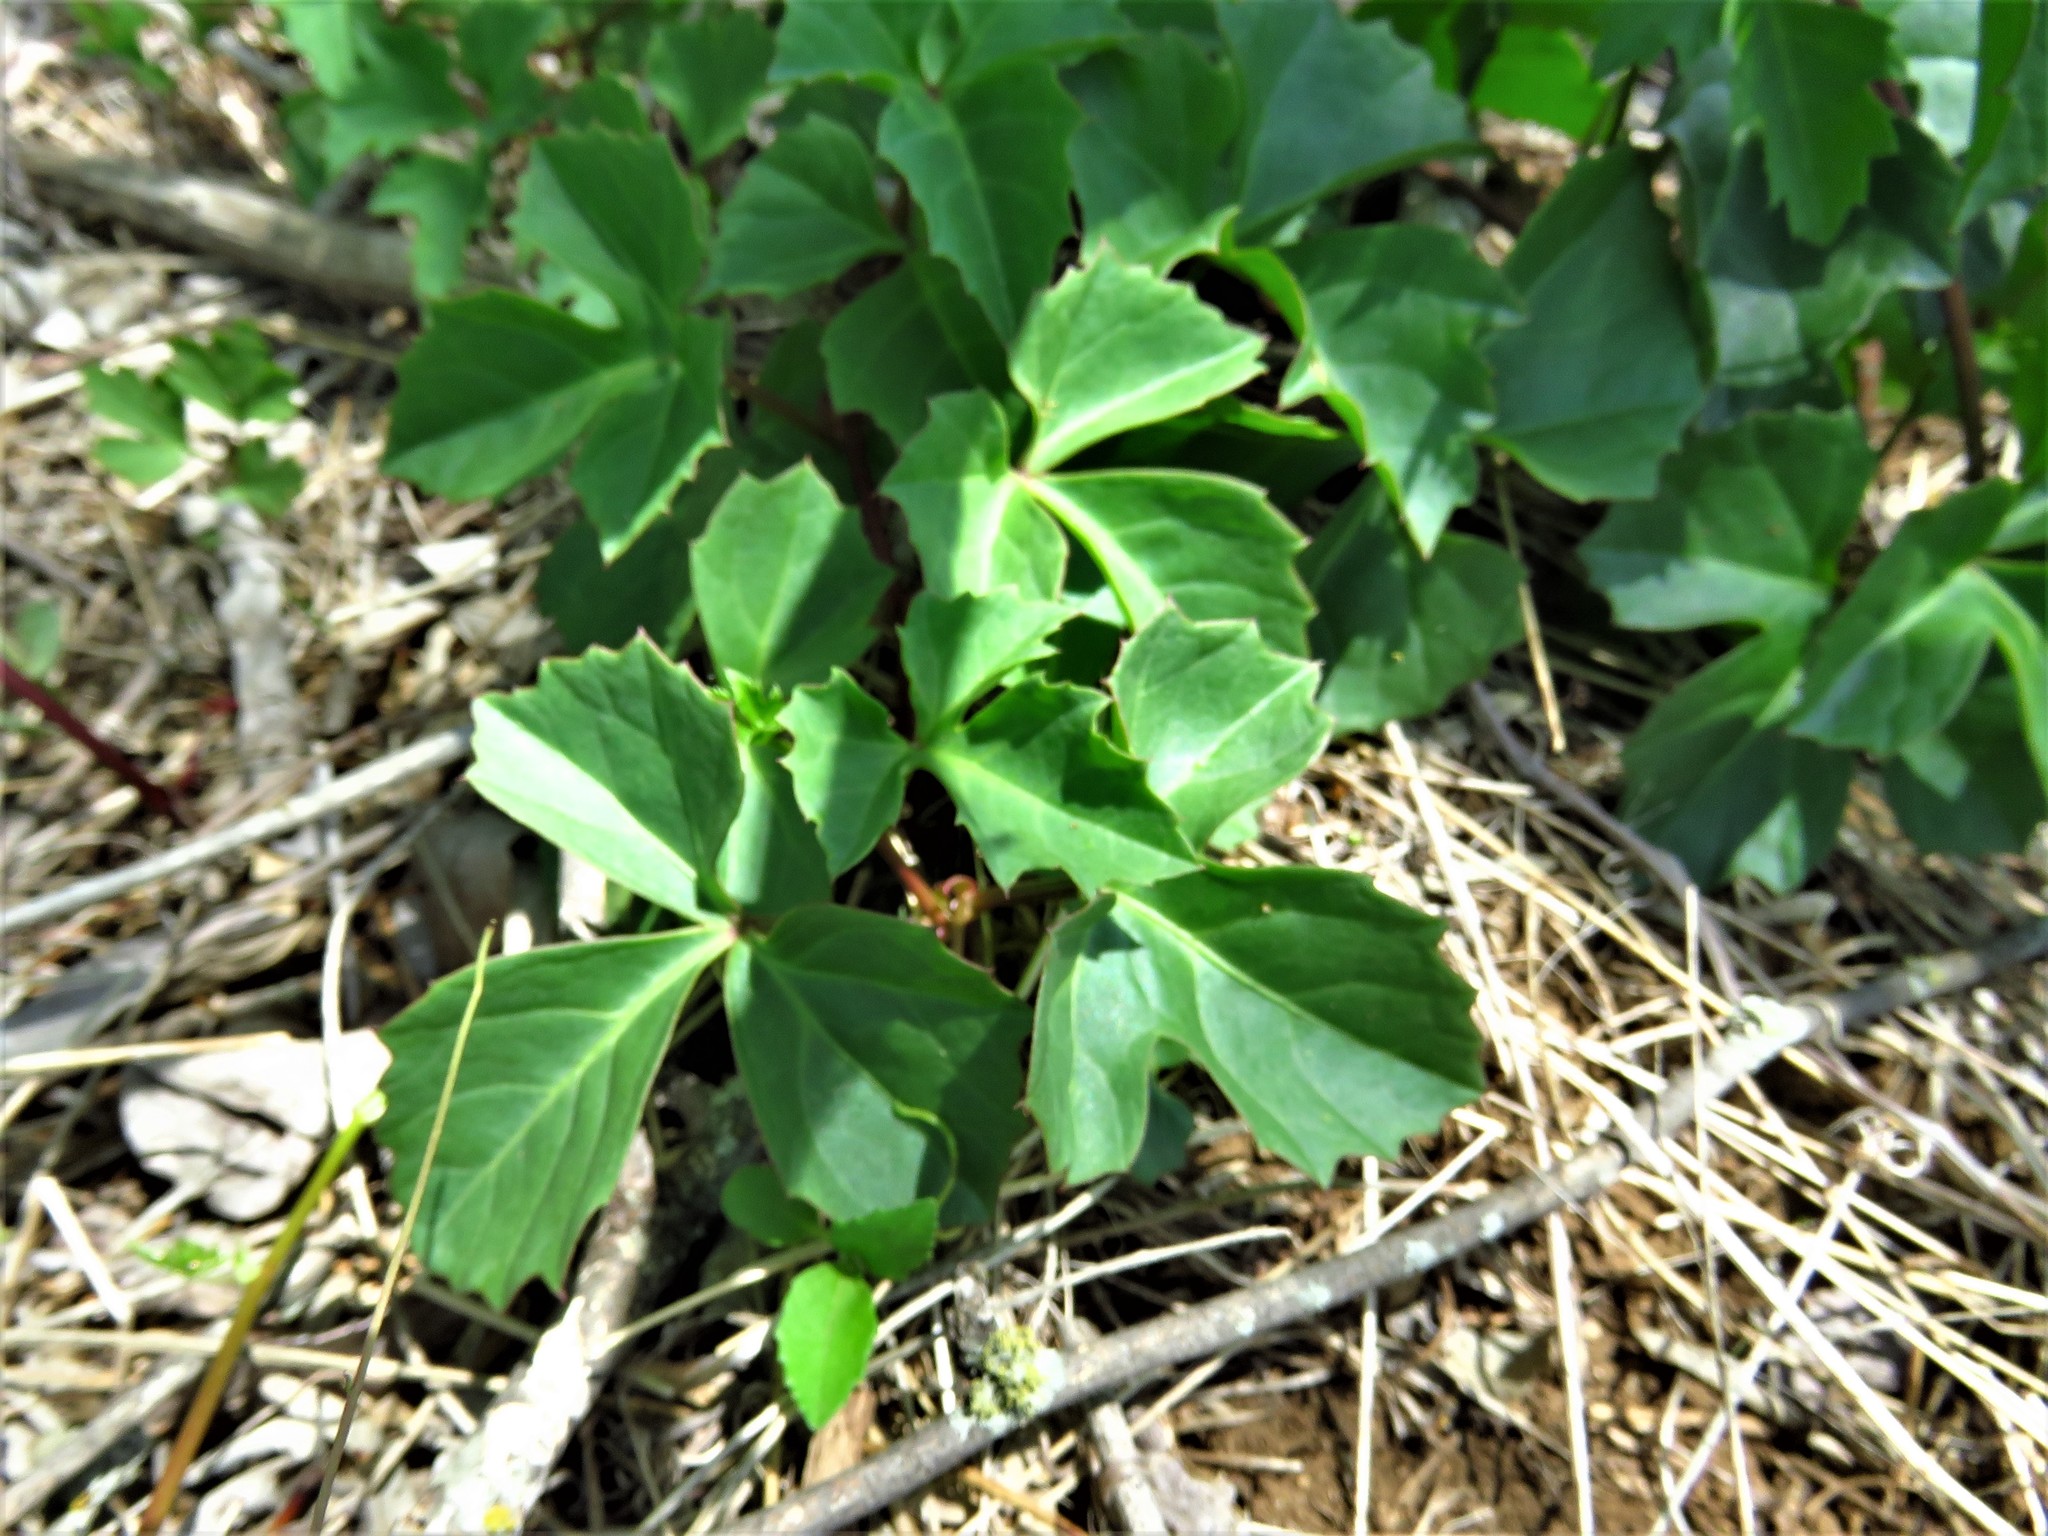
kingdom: Plantae
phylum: Tracheophyta
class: Magnoliopsida
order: Vitales
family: Vitaceae
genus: Cissus
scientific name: Cissus trifoliata
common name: Vine-sorrel
